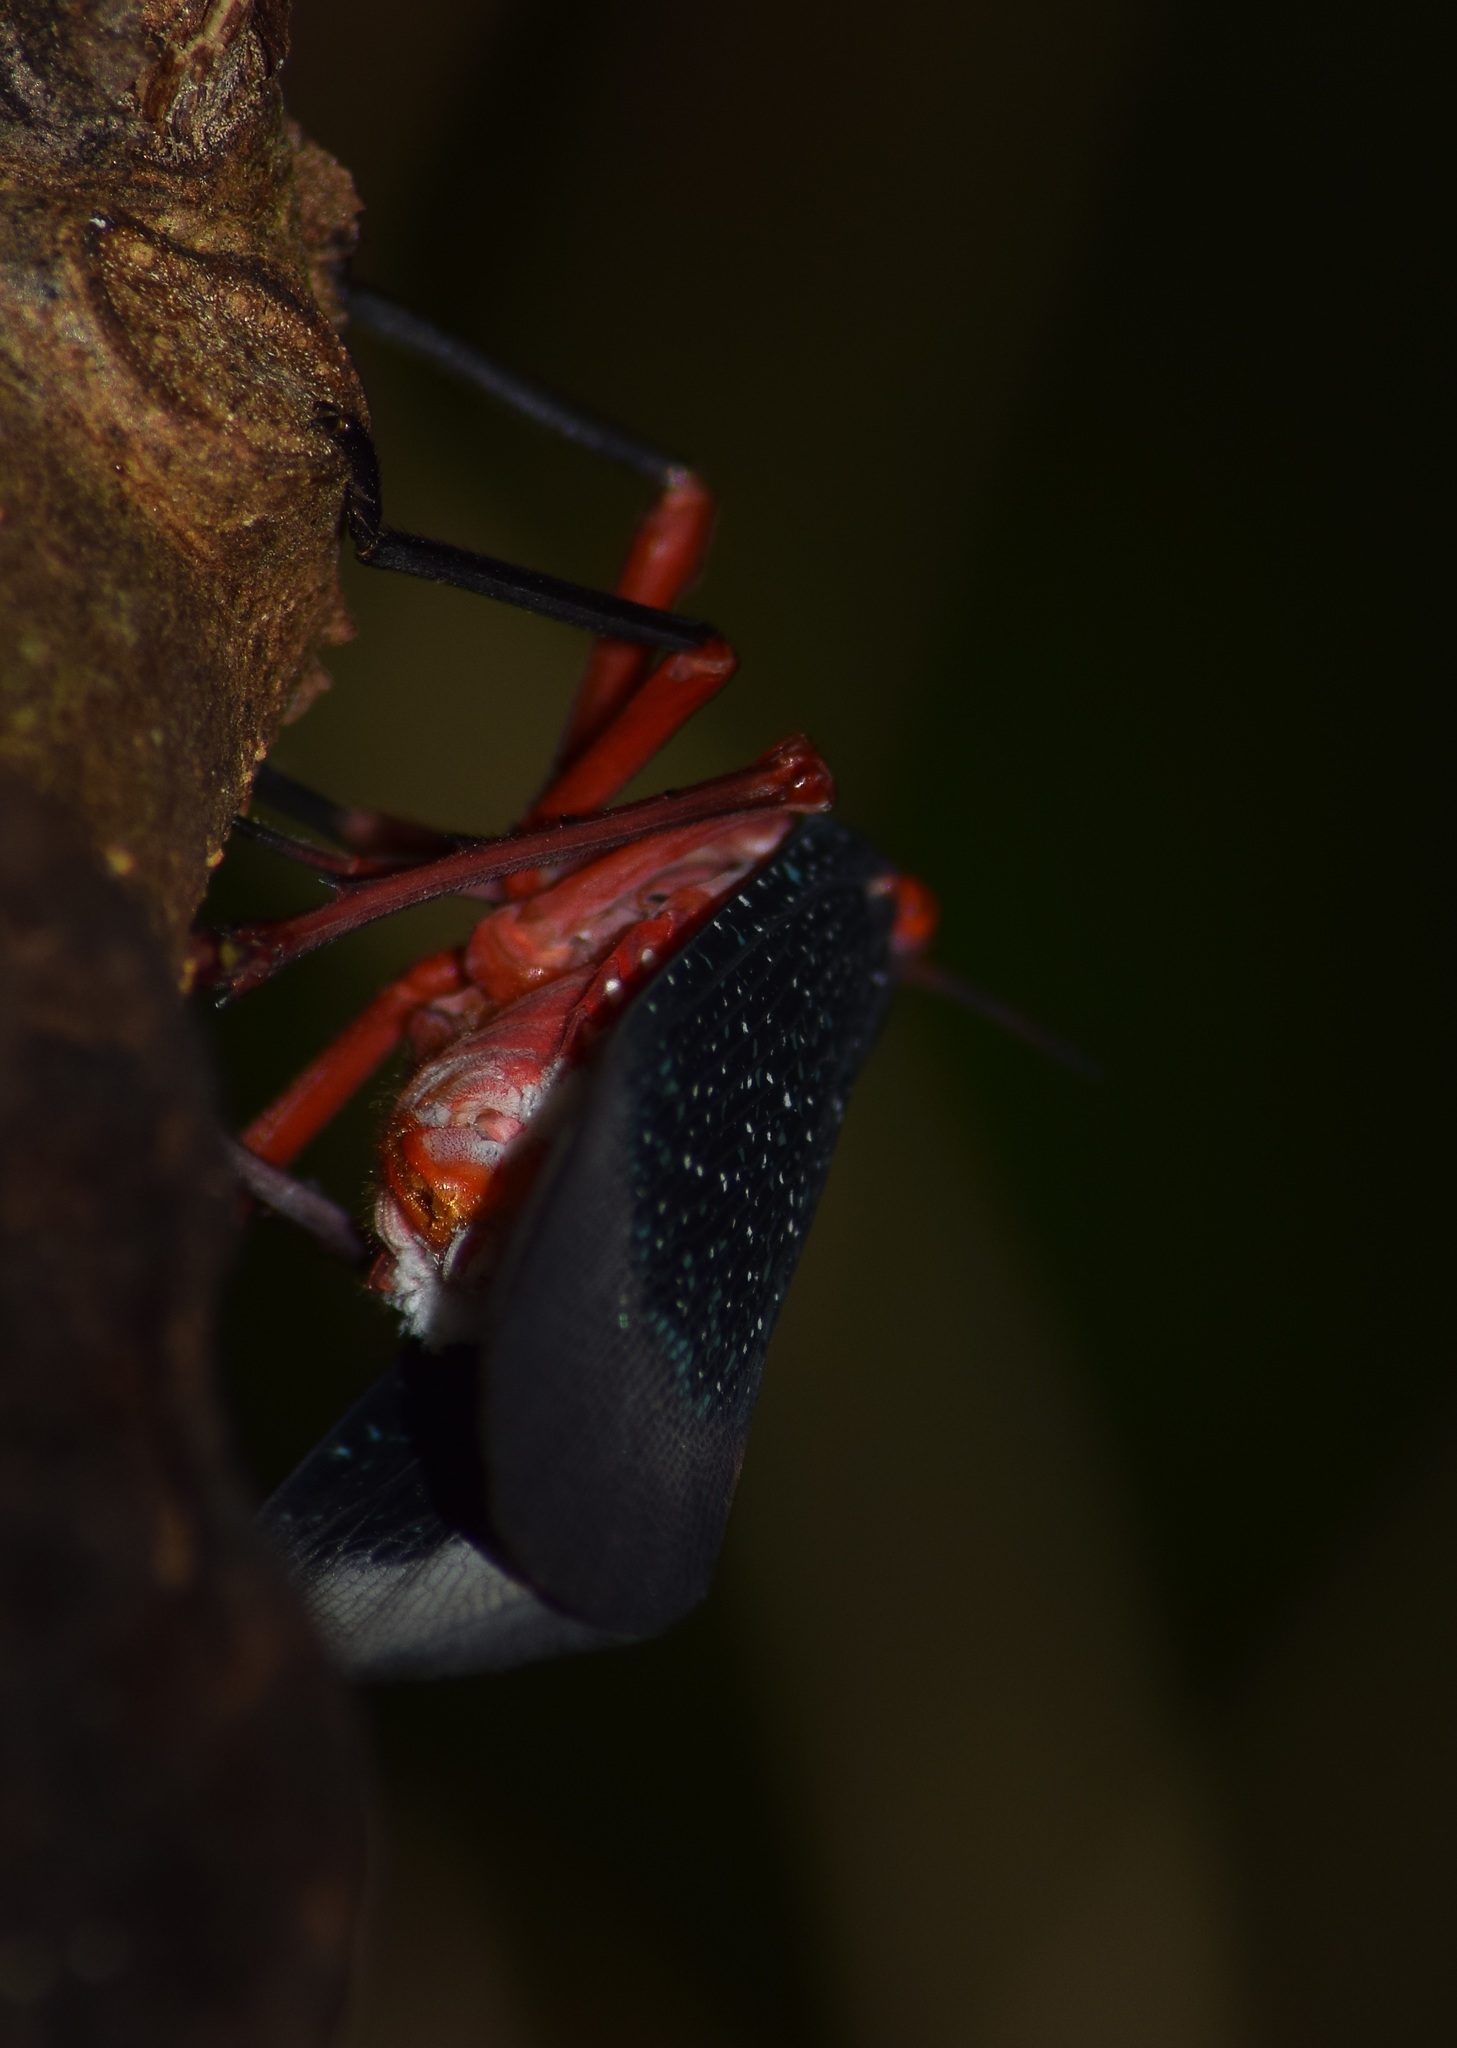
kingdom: Animalia
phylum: Arthropoda
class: Insecta
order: Hemiptera
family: Fulgoridae
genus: Kalidasa
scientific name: Kalidasa lanata
